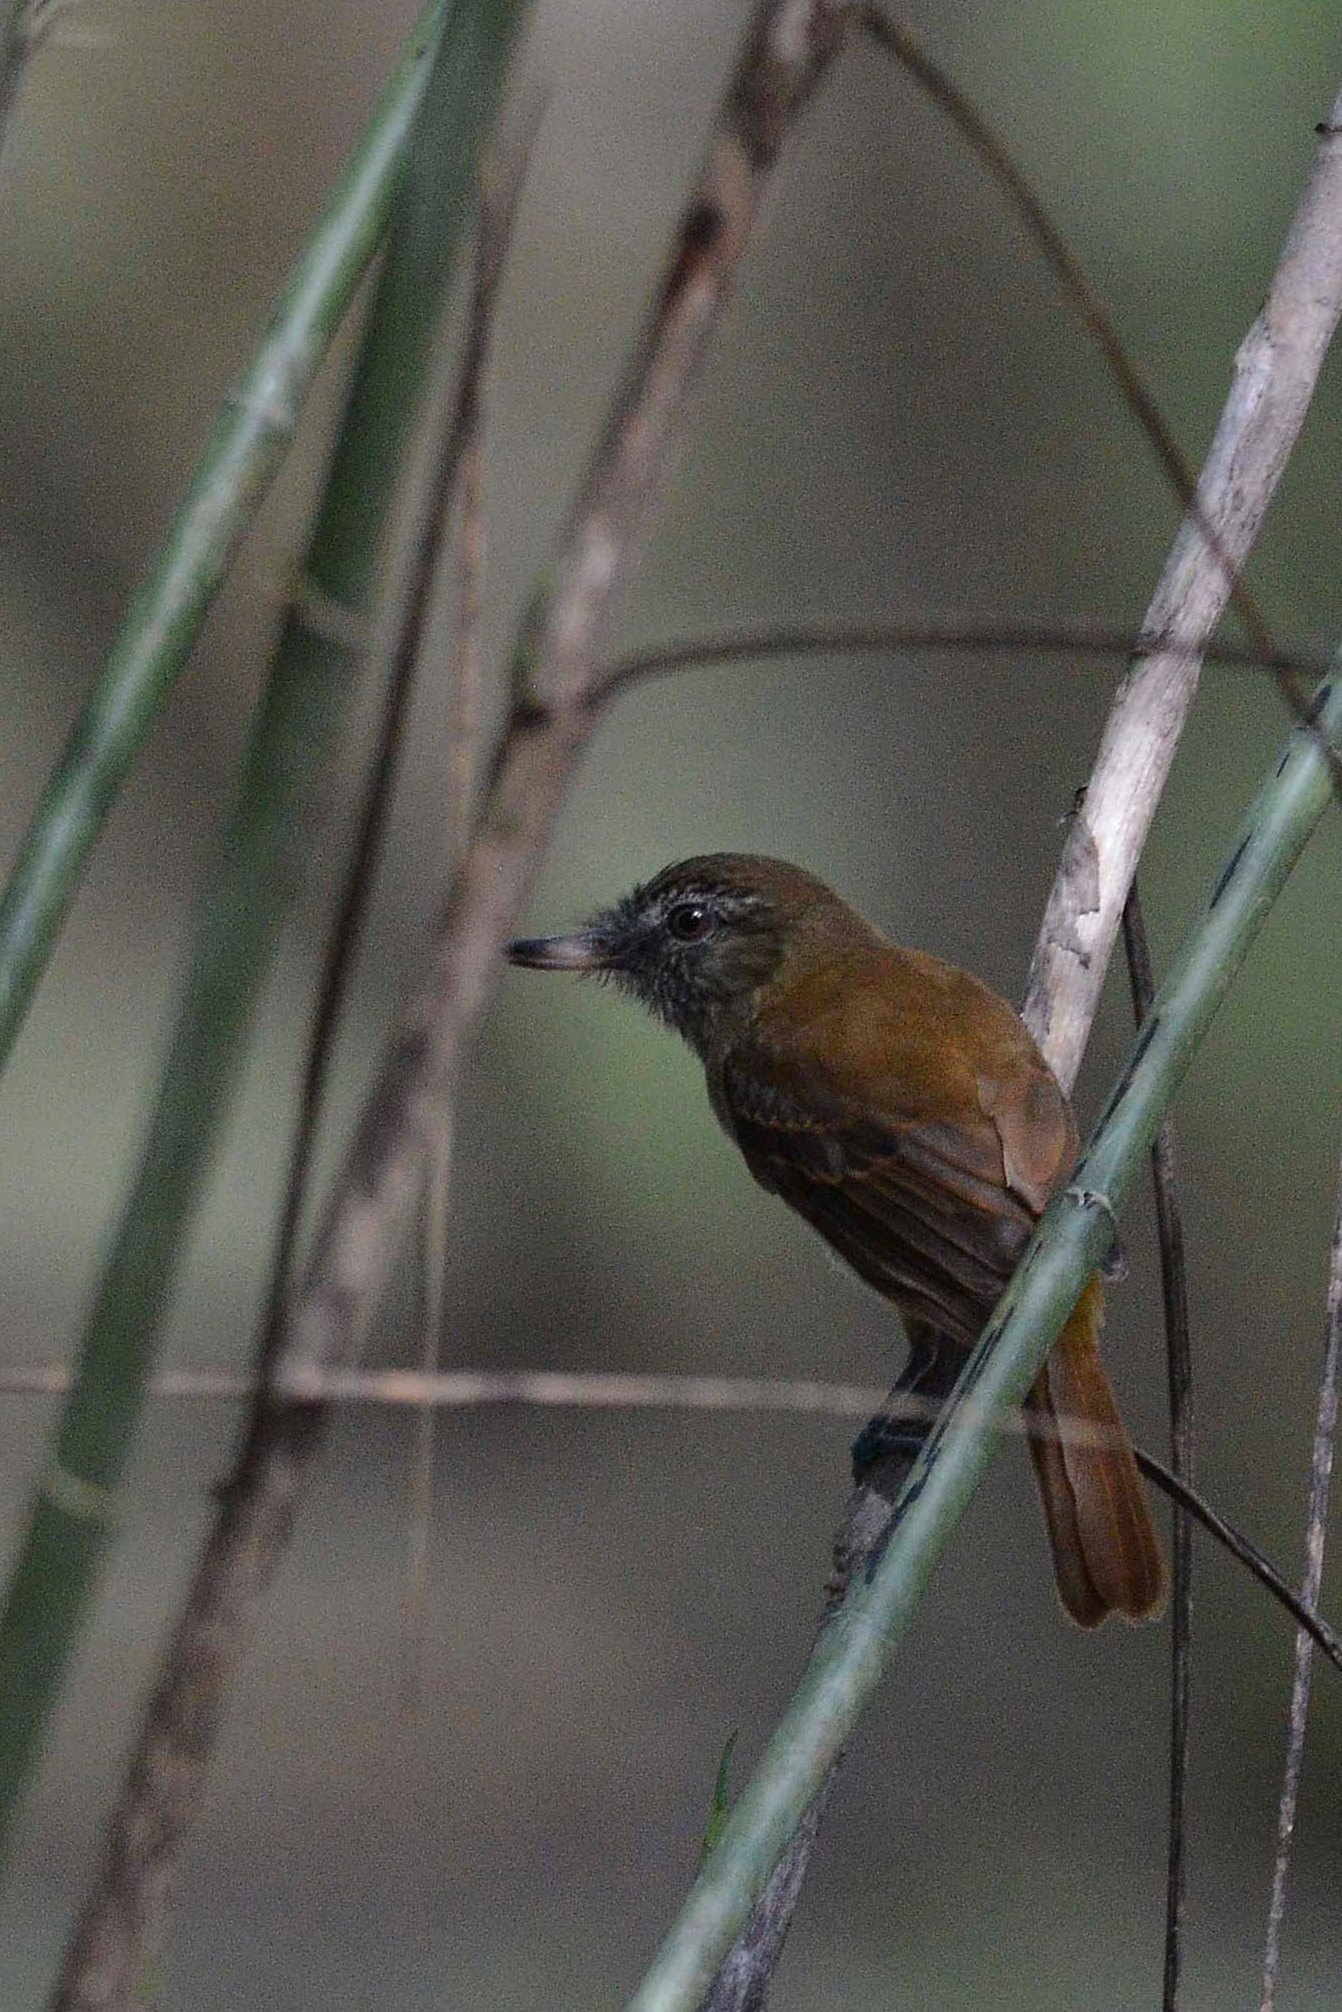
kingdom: Animalia
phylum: Chordata
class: Aves
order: Passeriformes
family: Tyrannidae
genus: Attila
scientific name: Attila spadiceus
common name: Bright-rumped attila
